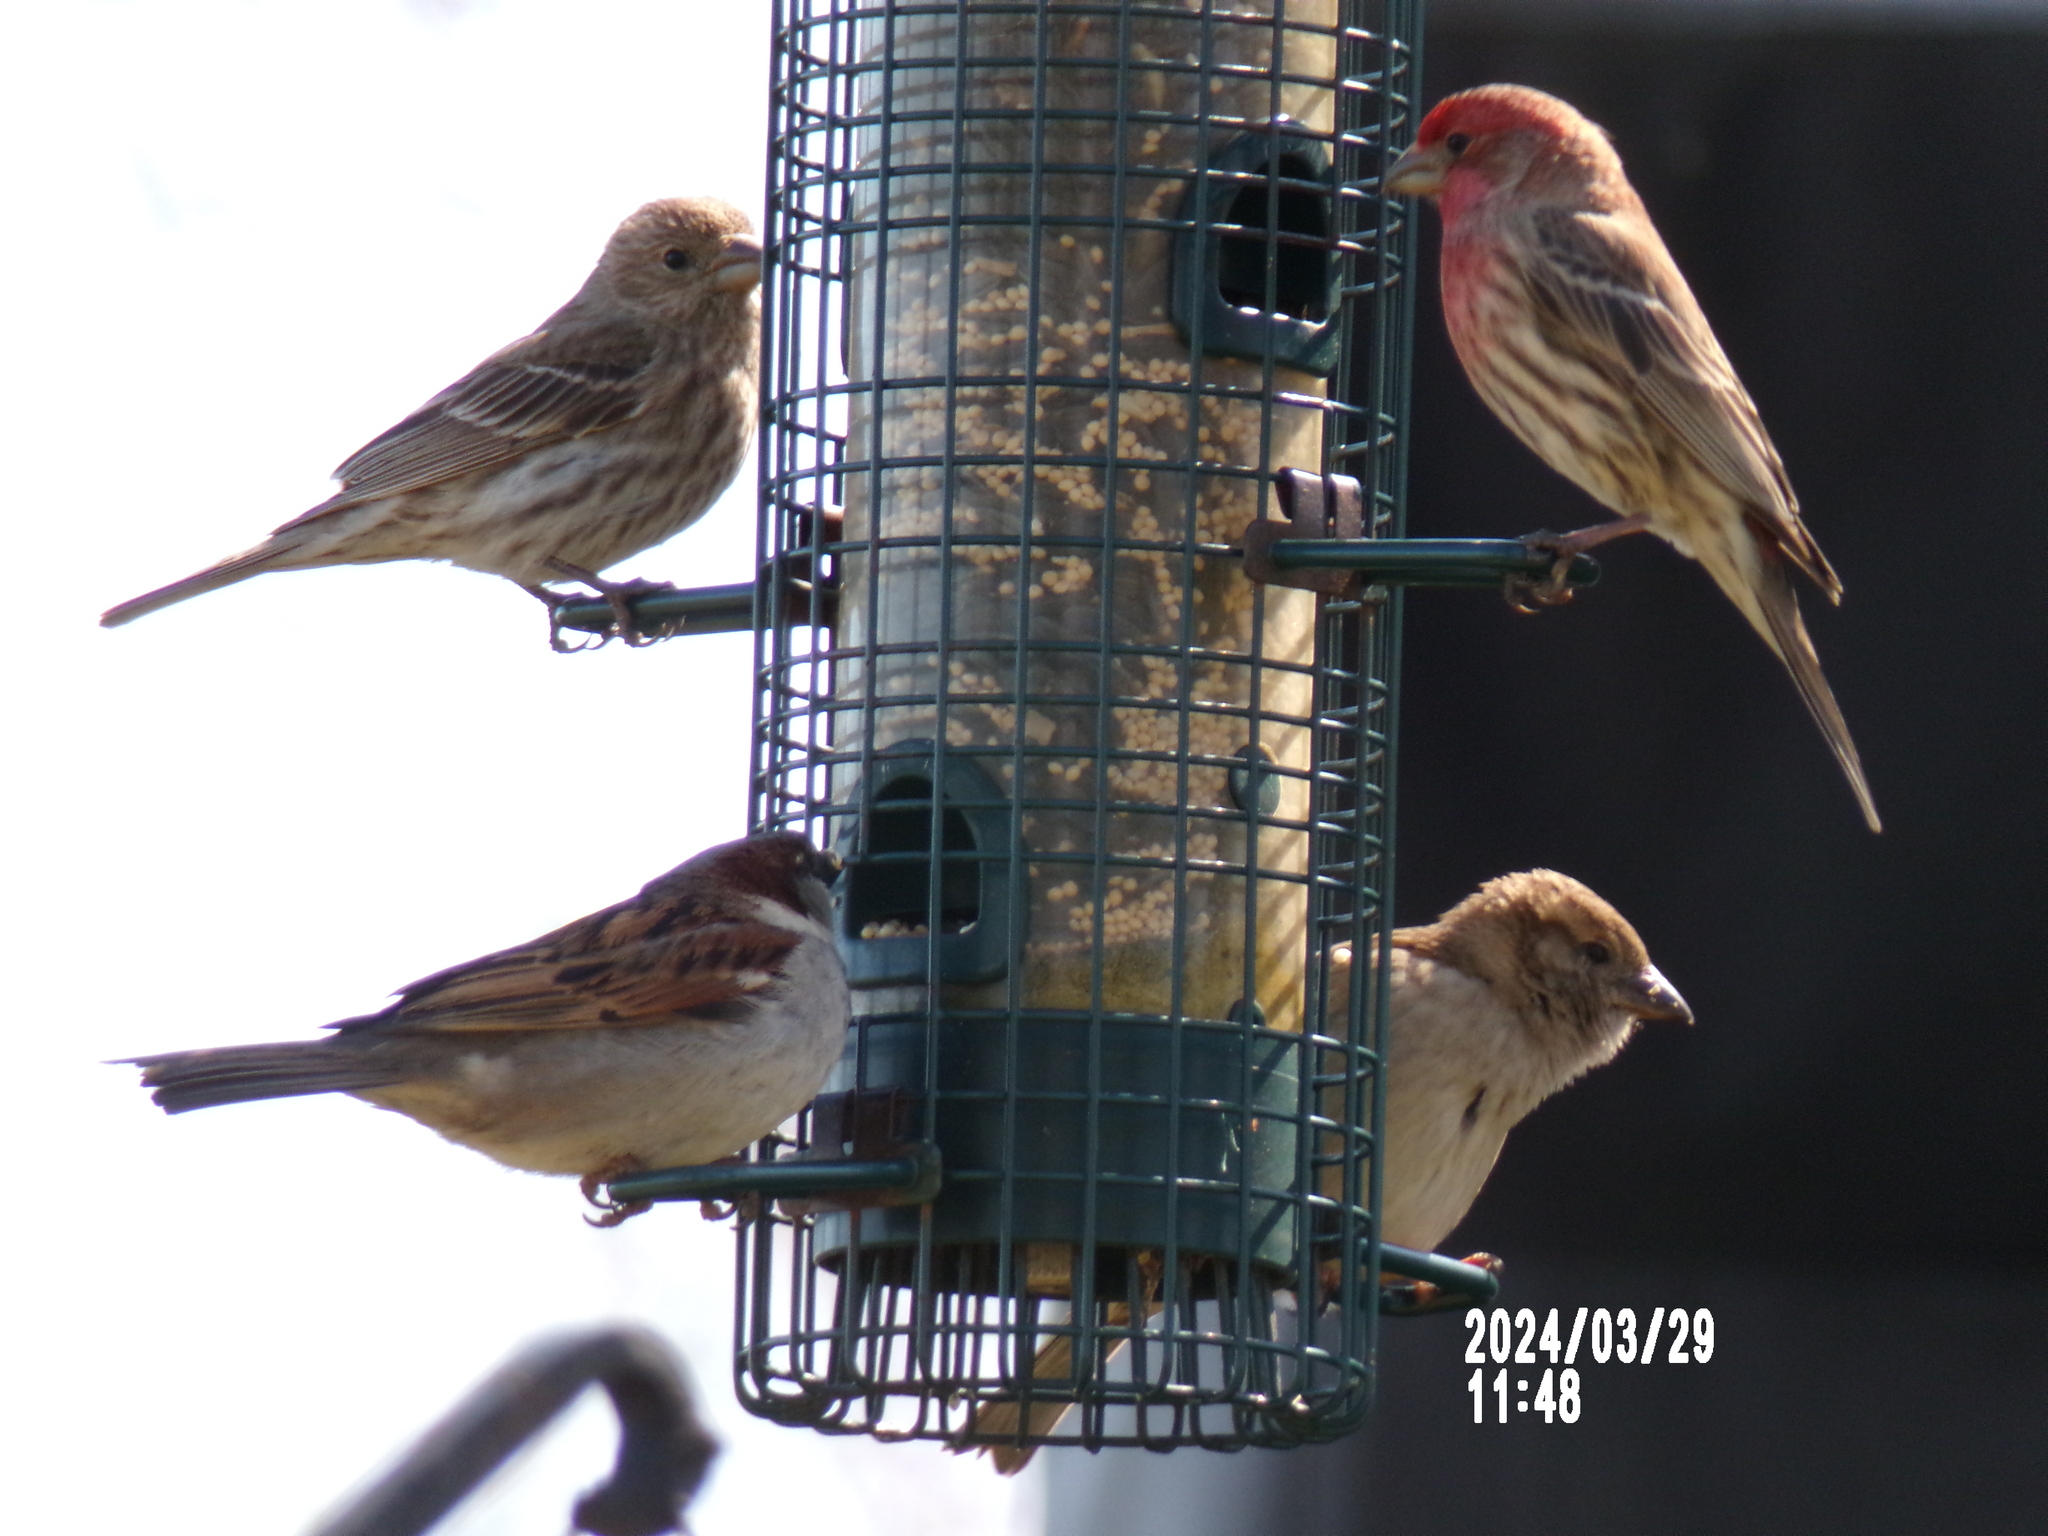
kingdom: Animalia
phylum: Chordata
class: Aves
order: Passeriformes
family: Fringillidae
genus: Haemorhous
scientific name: Haemorhous mexicanus
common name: House finch
